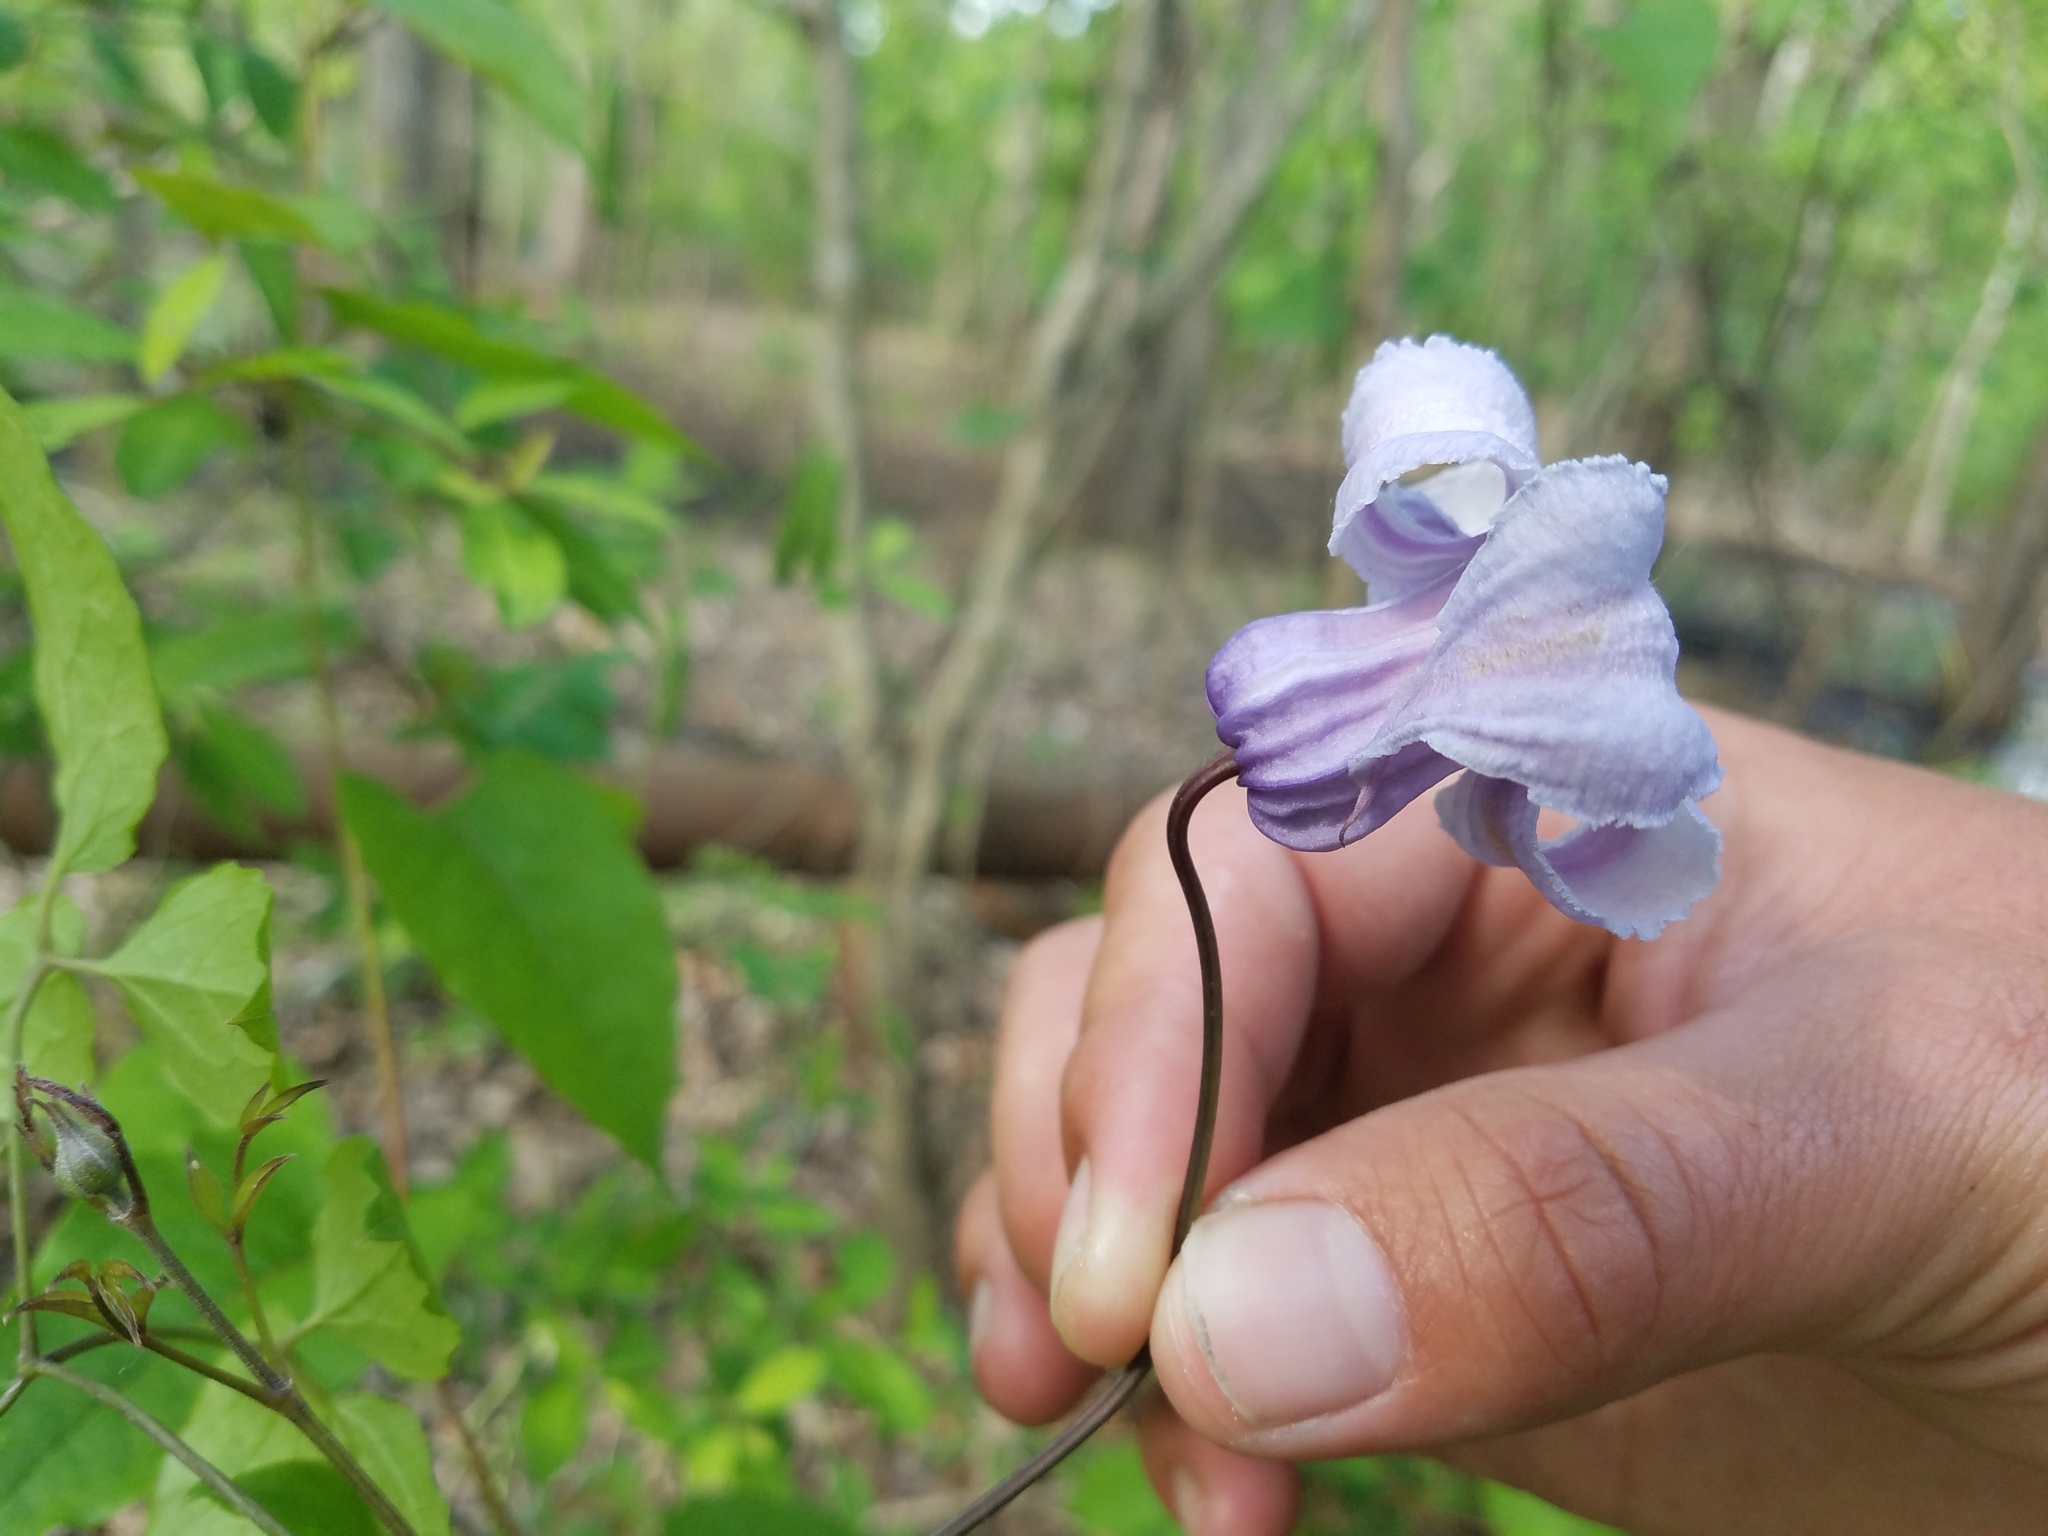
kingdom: Plantae
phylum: Tracheophyta
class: Magnoliopsida
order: Ranunculales
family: Ranunculaceae
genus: Clematis
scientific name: Clematis crispa
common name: Curly clematis
